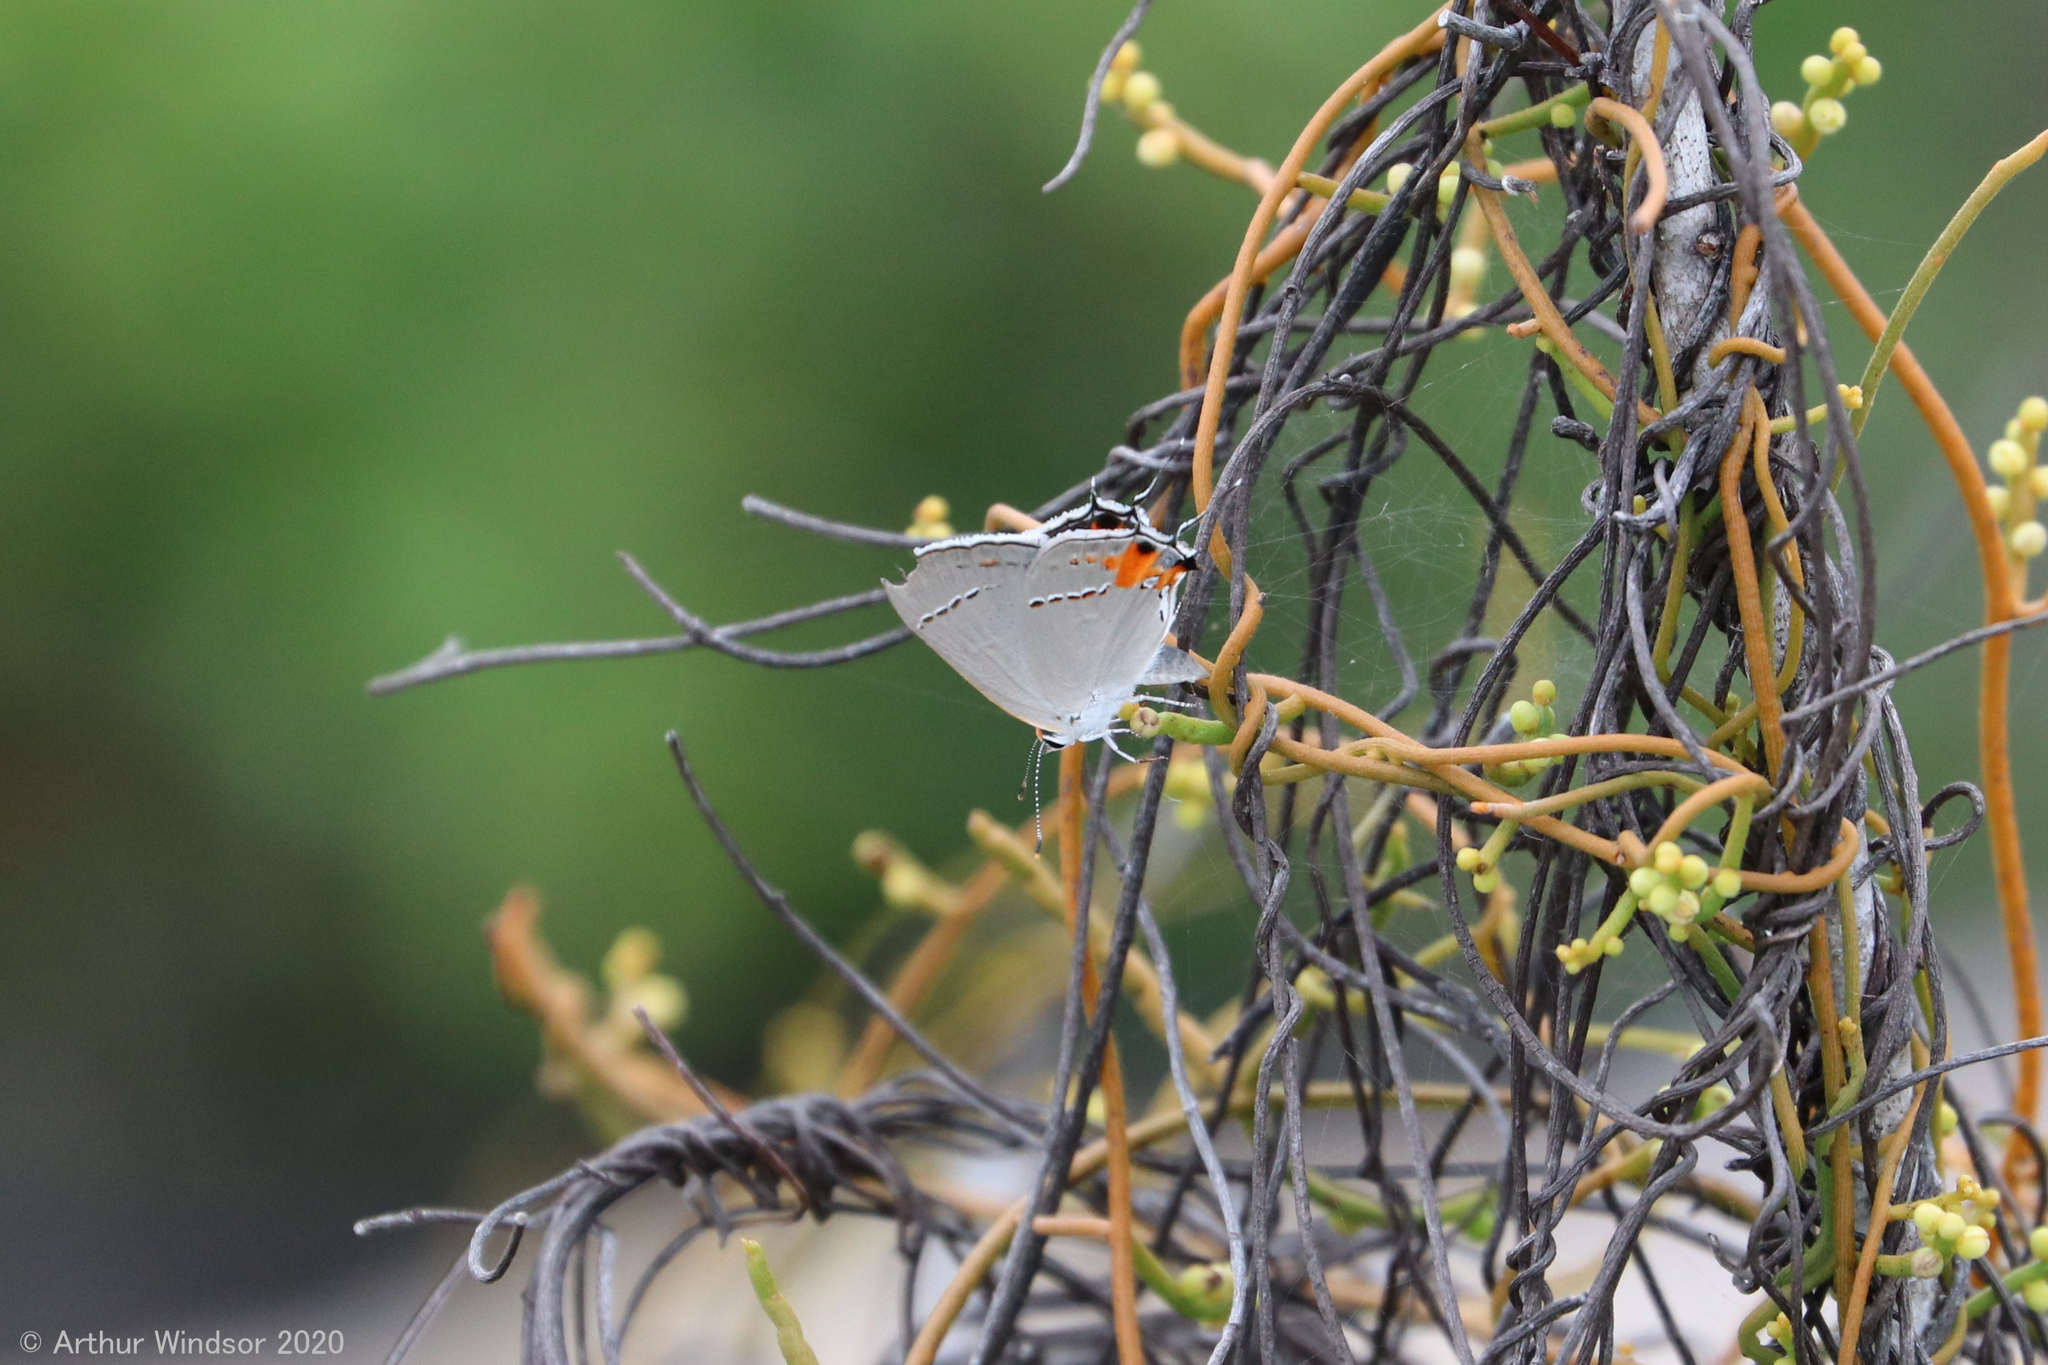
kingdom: Animalia
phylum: Arthropoda
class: Insecta
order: Lepidoptera
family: Lycaenidae
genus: Strymon
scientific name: Strymon melinus
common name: Gray hairstreak
